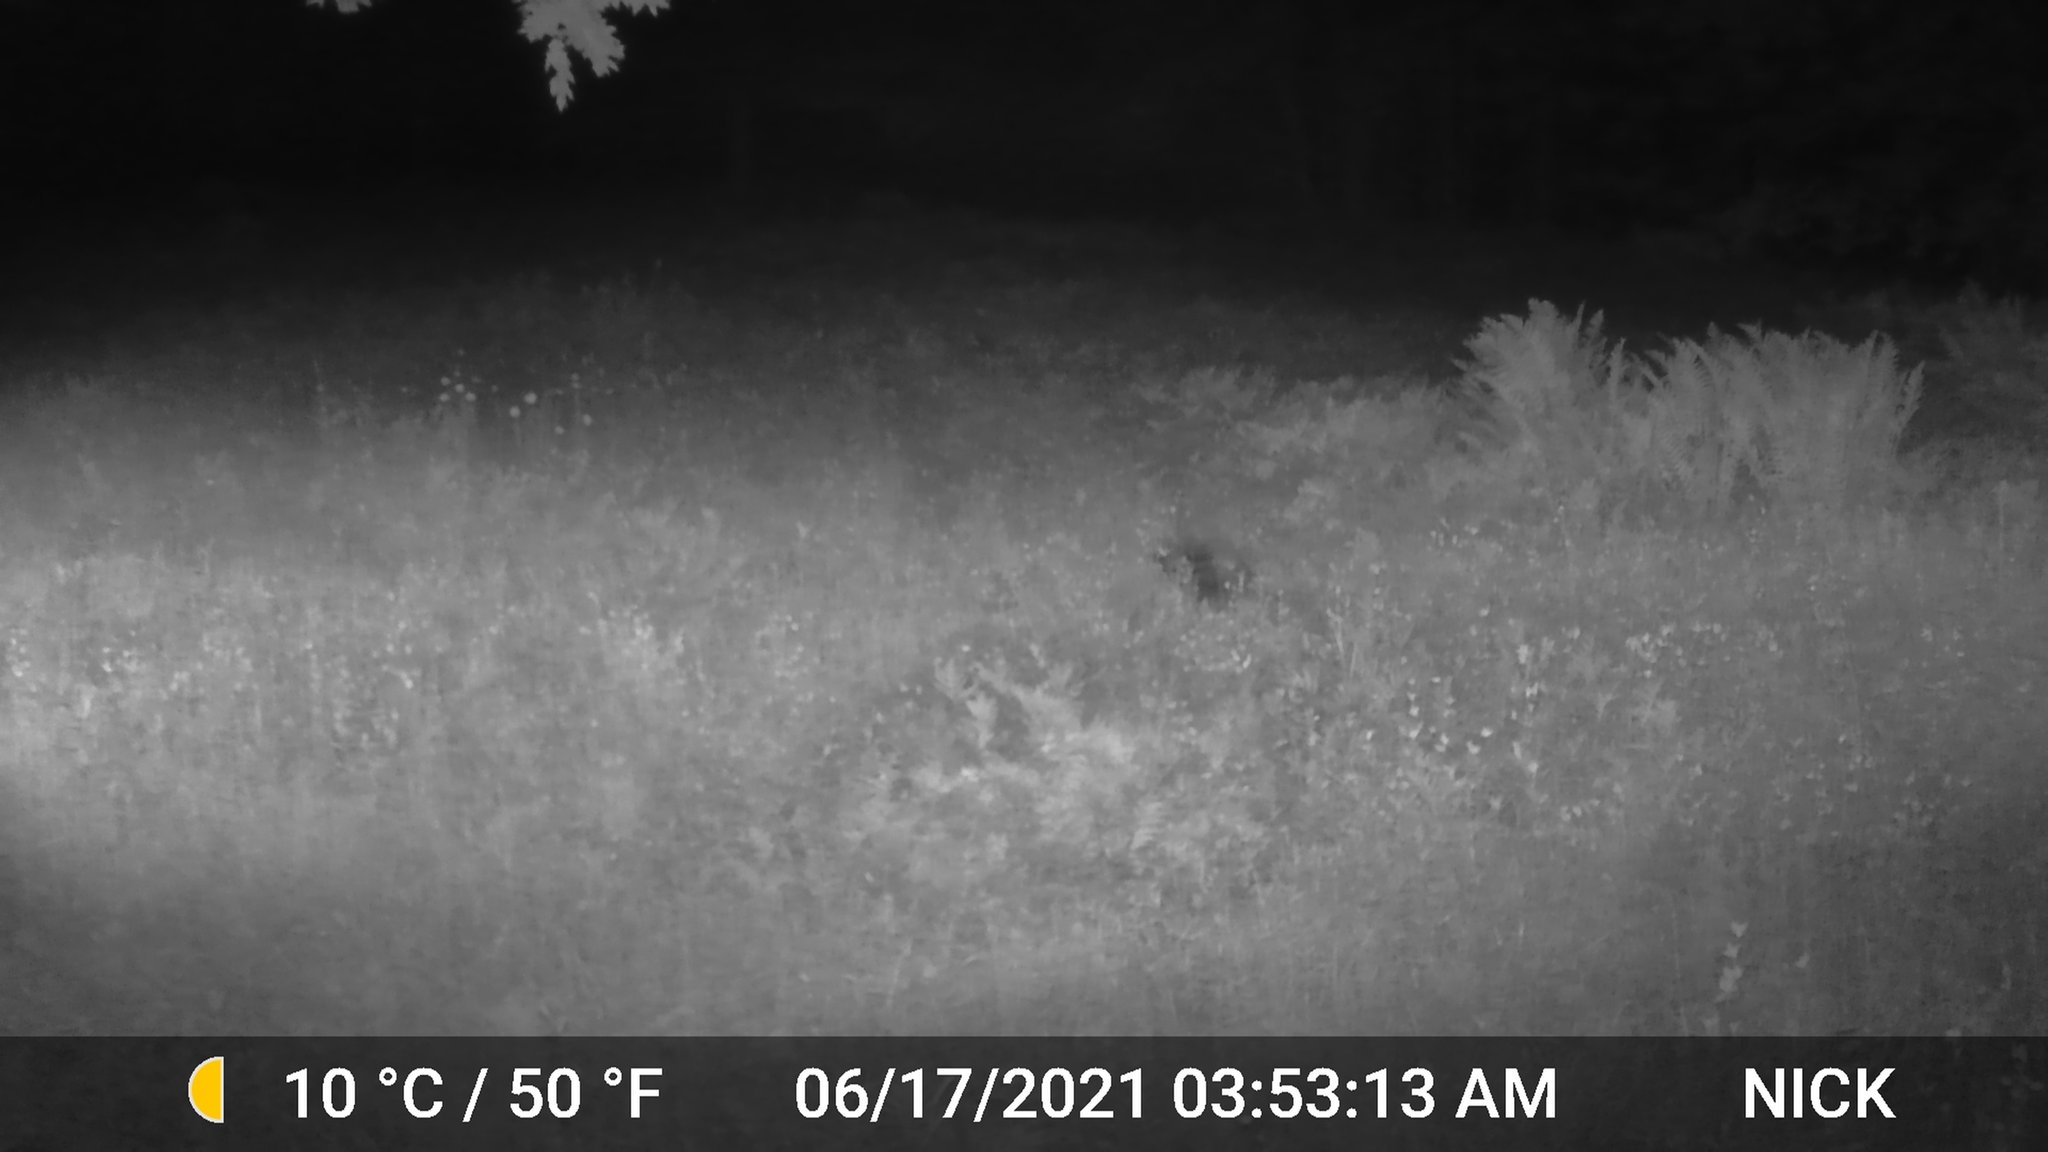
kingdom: Animalia
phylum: Chordata
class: Mammalia
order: Rodentia
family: Erethizontidae
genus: Erethizon
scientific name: Erethizon dorsatus
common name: North american porcupine
